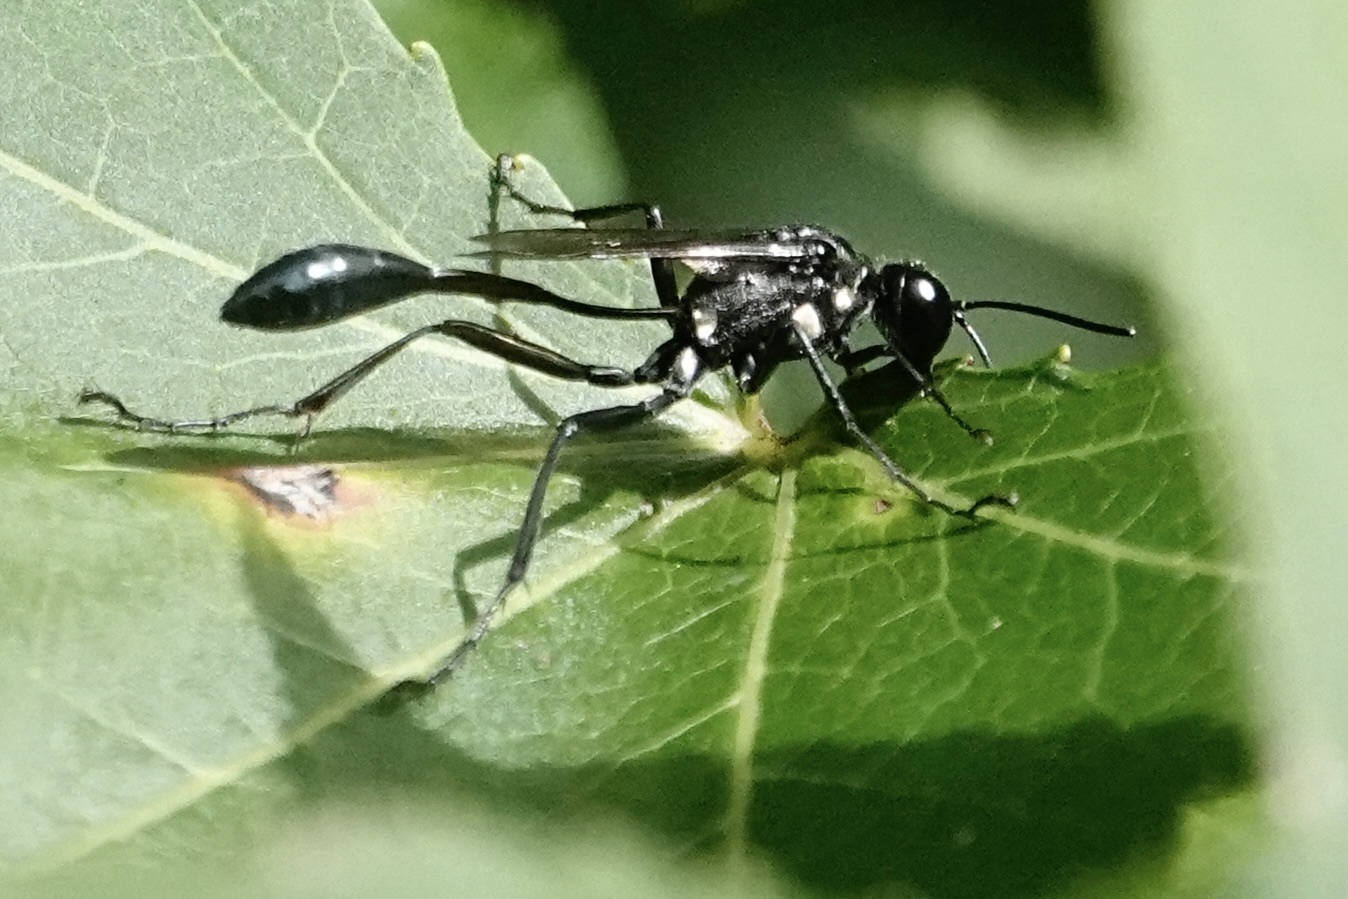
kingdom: Animalia
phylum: Arthropoda
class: Insecta
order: Hymenoptera
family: Sphecidae
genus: Eremnophila
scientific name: Eremnophila aureonotata
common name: Gold-marked thread-waisted wasp
